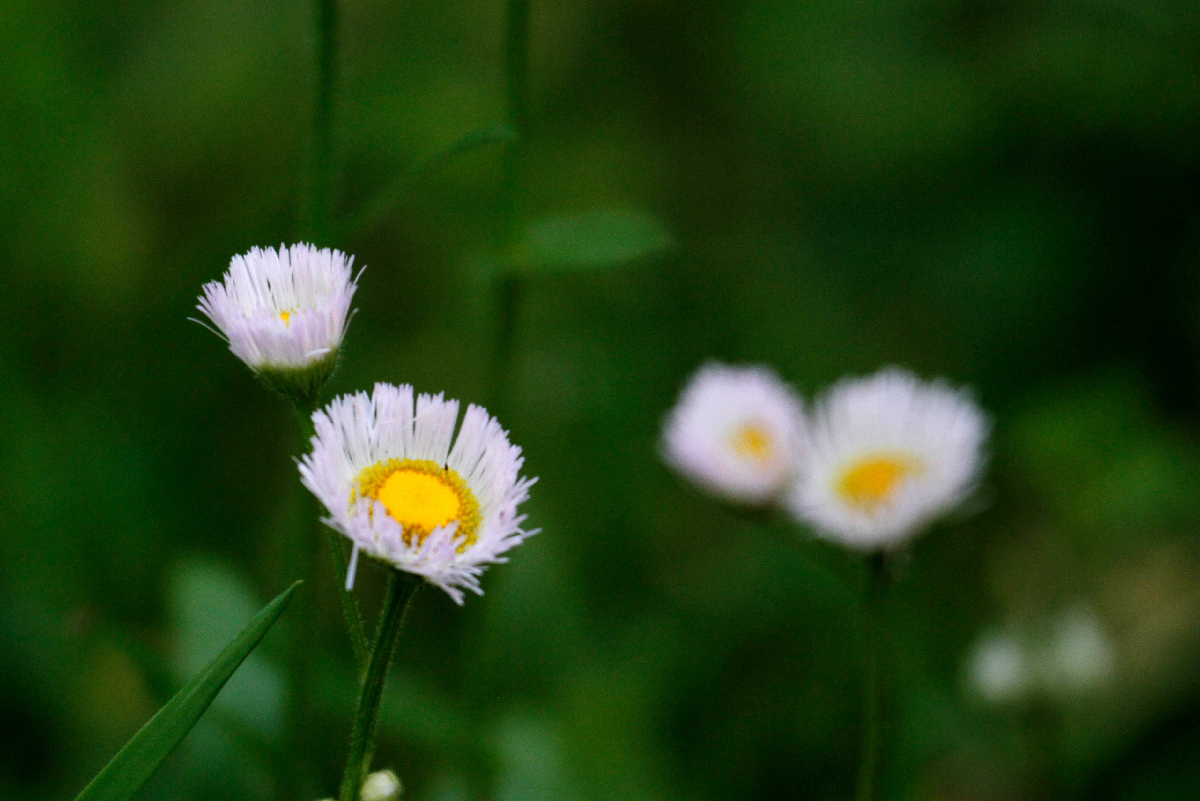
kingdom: Plantae
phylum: Tracheophyta
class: Magnoliopsida
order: Asterales
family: Asteraceae
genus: Erigeron
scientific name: Erigeron philadelphicus
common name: Robin's-plantain
